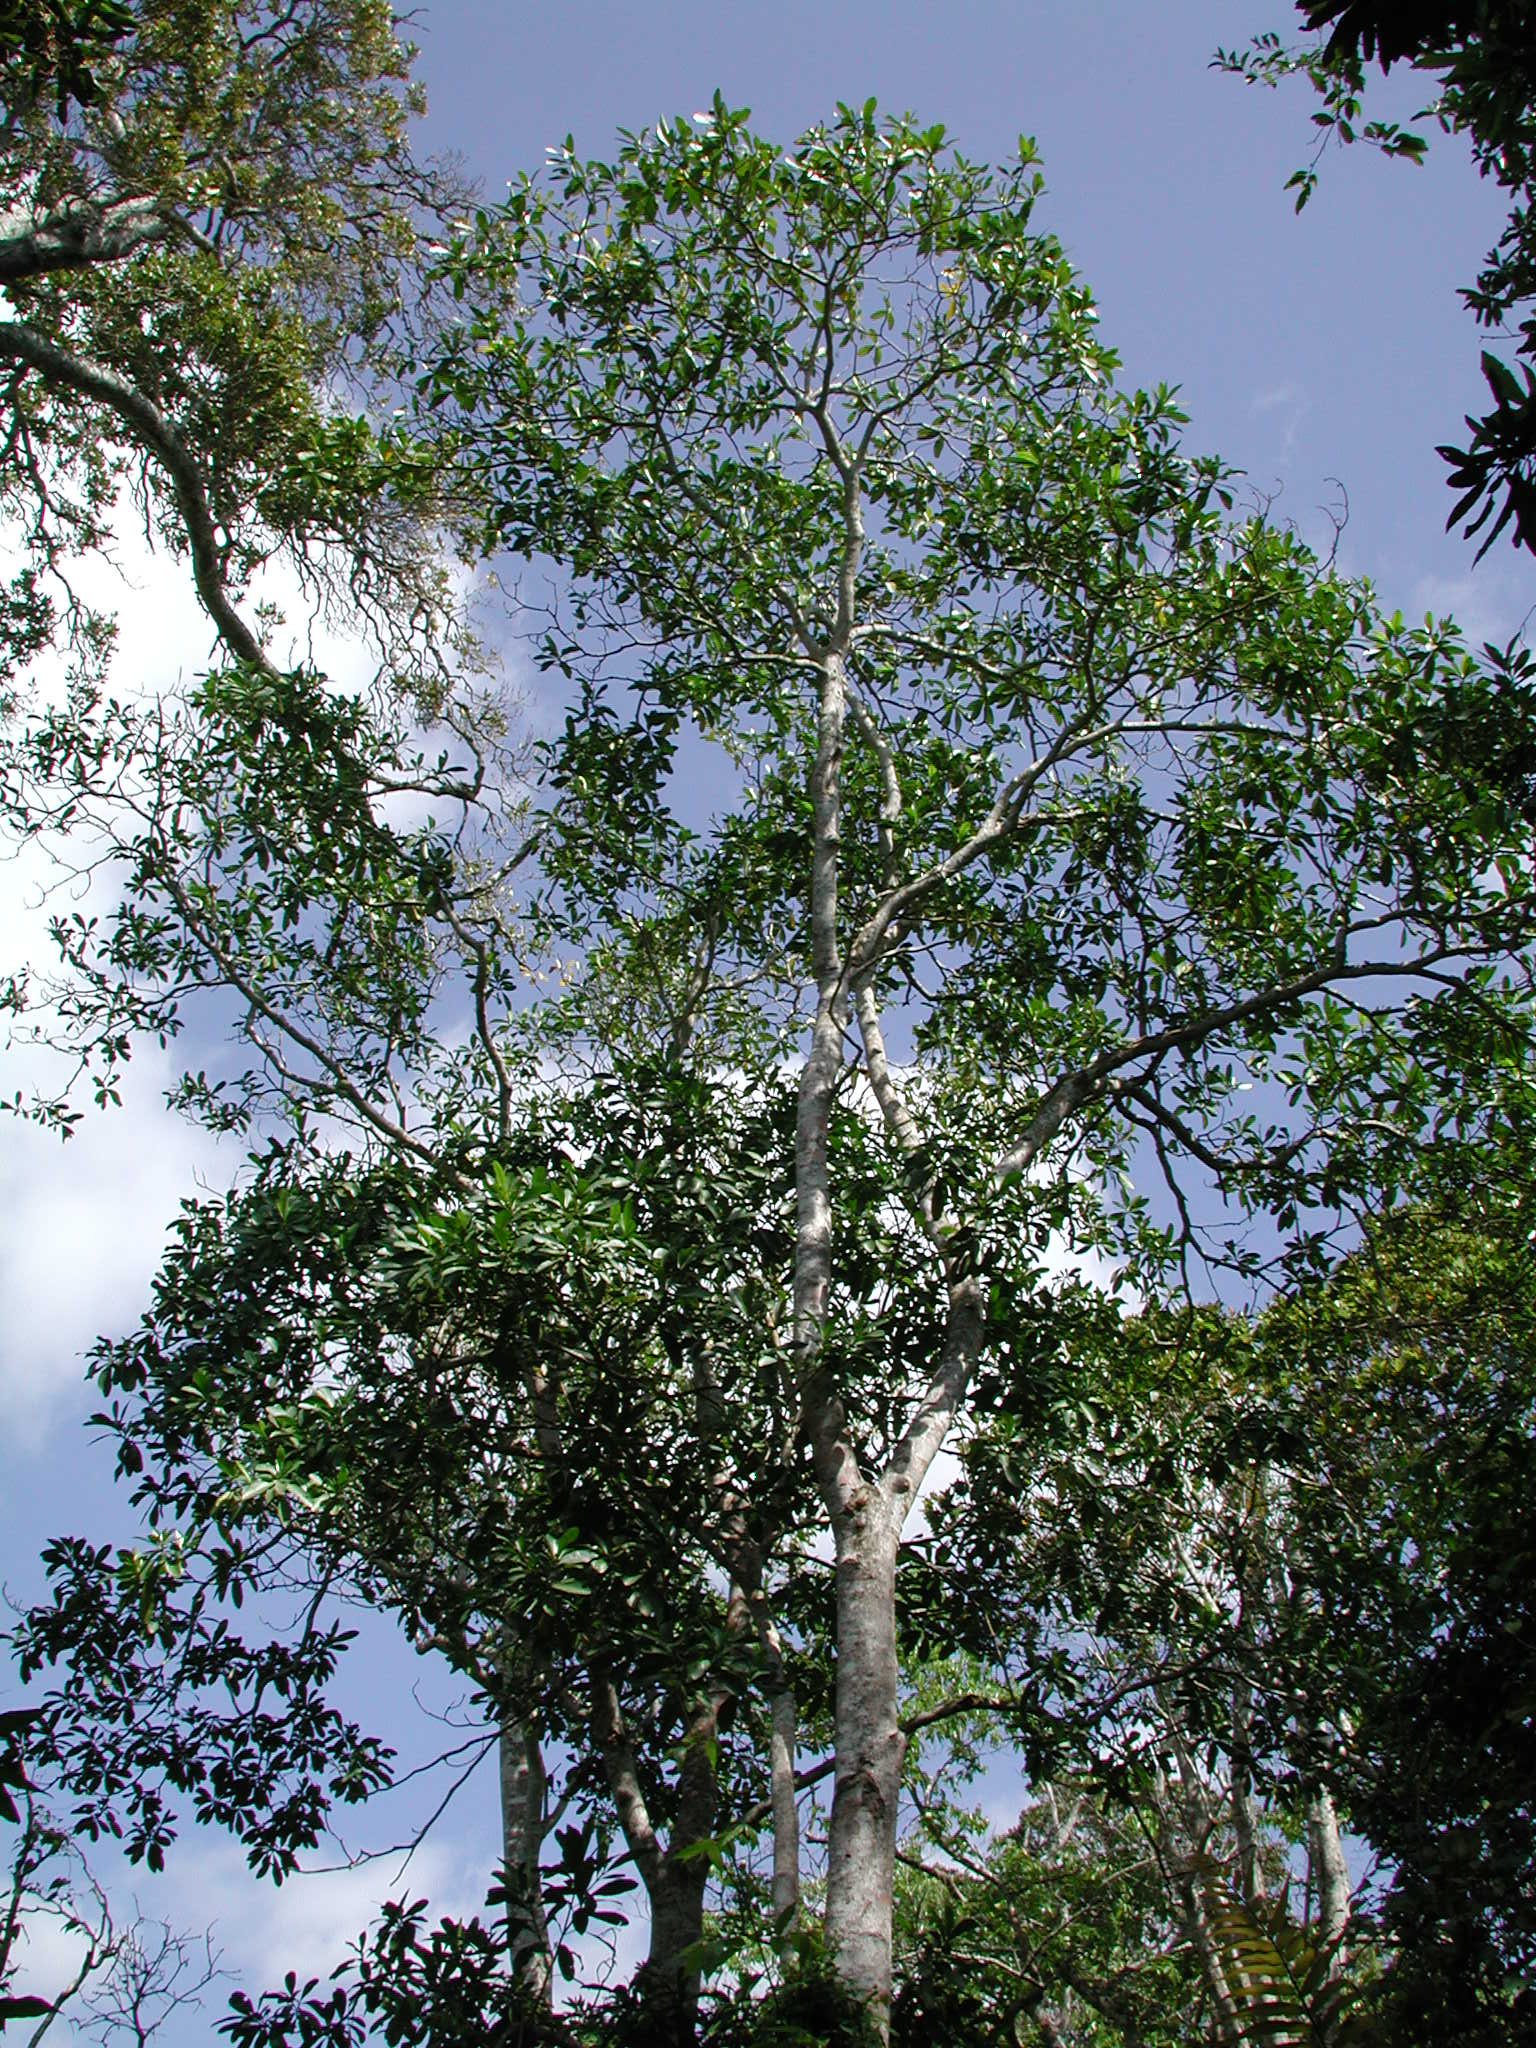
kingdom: Plantae
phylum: Tracheophyta
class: Magnoliopsida
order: Gentianales
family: Apocynaceae
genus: Voacanga
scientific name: Voacanga thouarsii
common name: Wild frangipani
